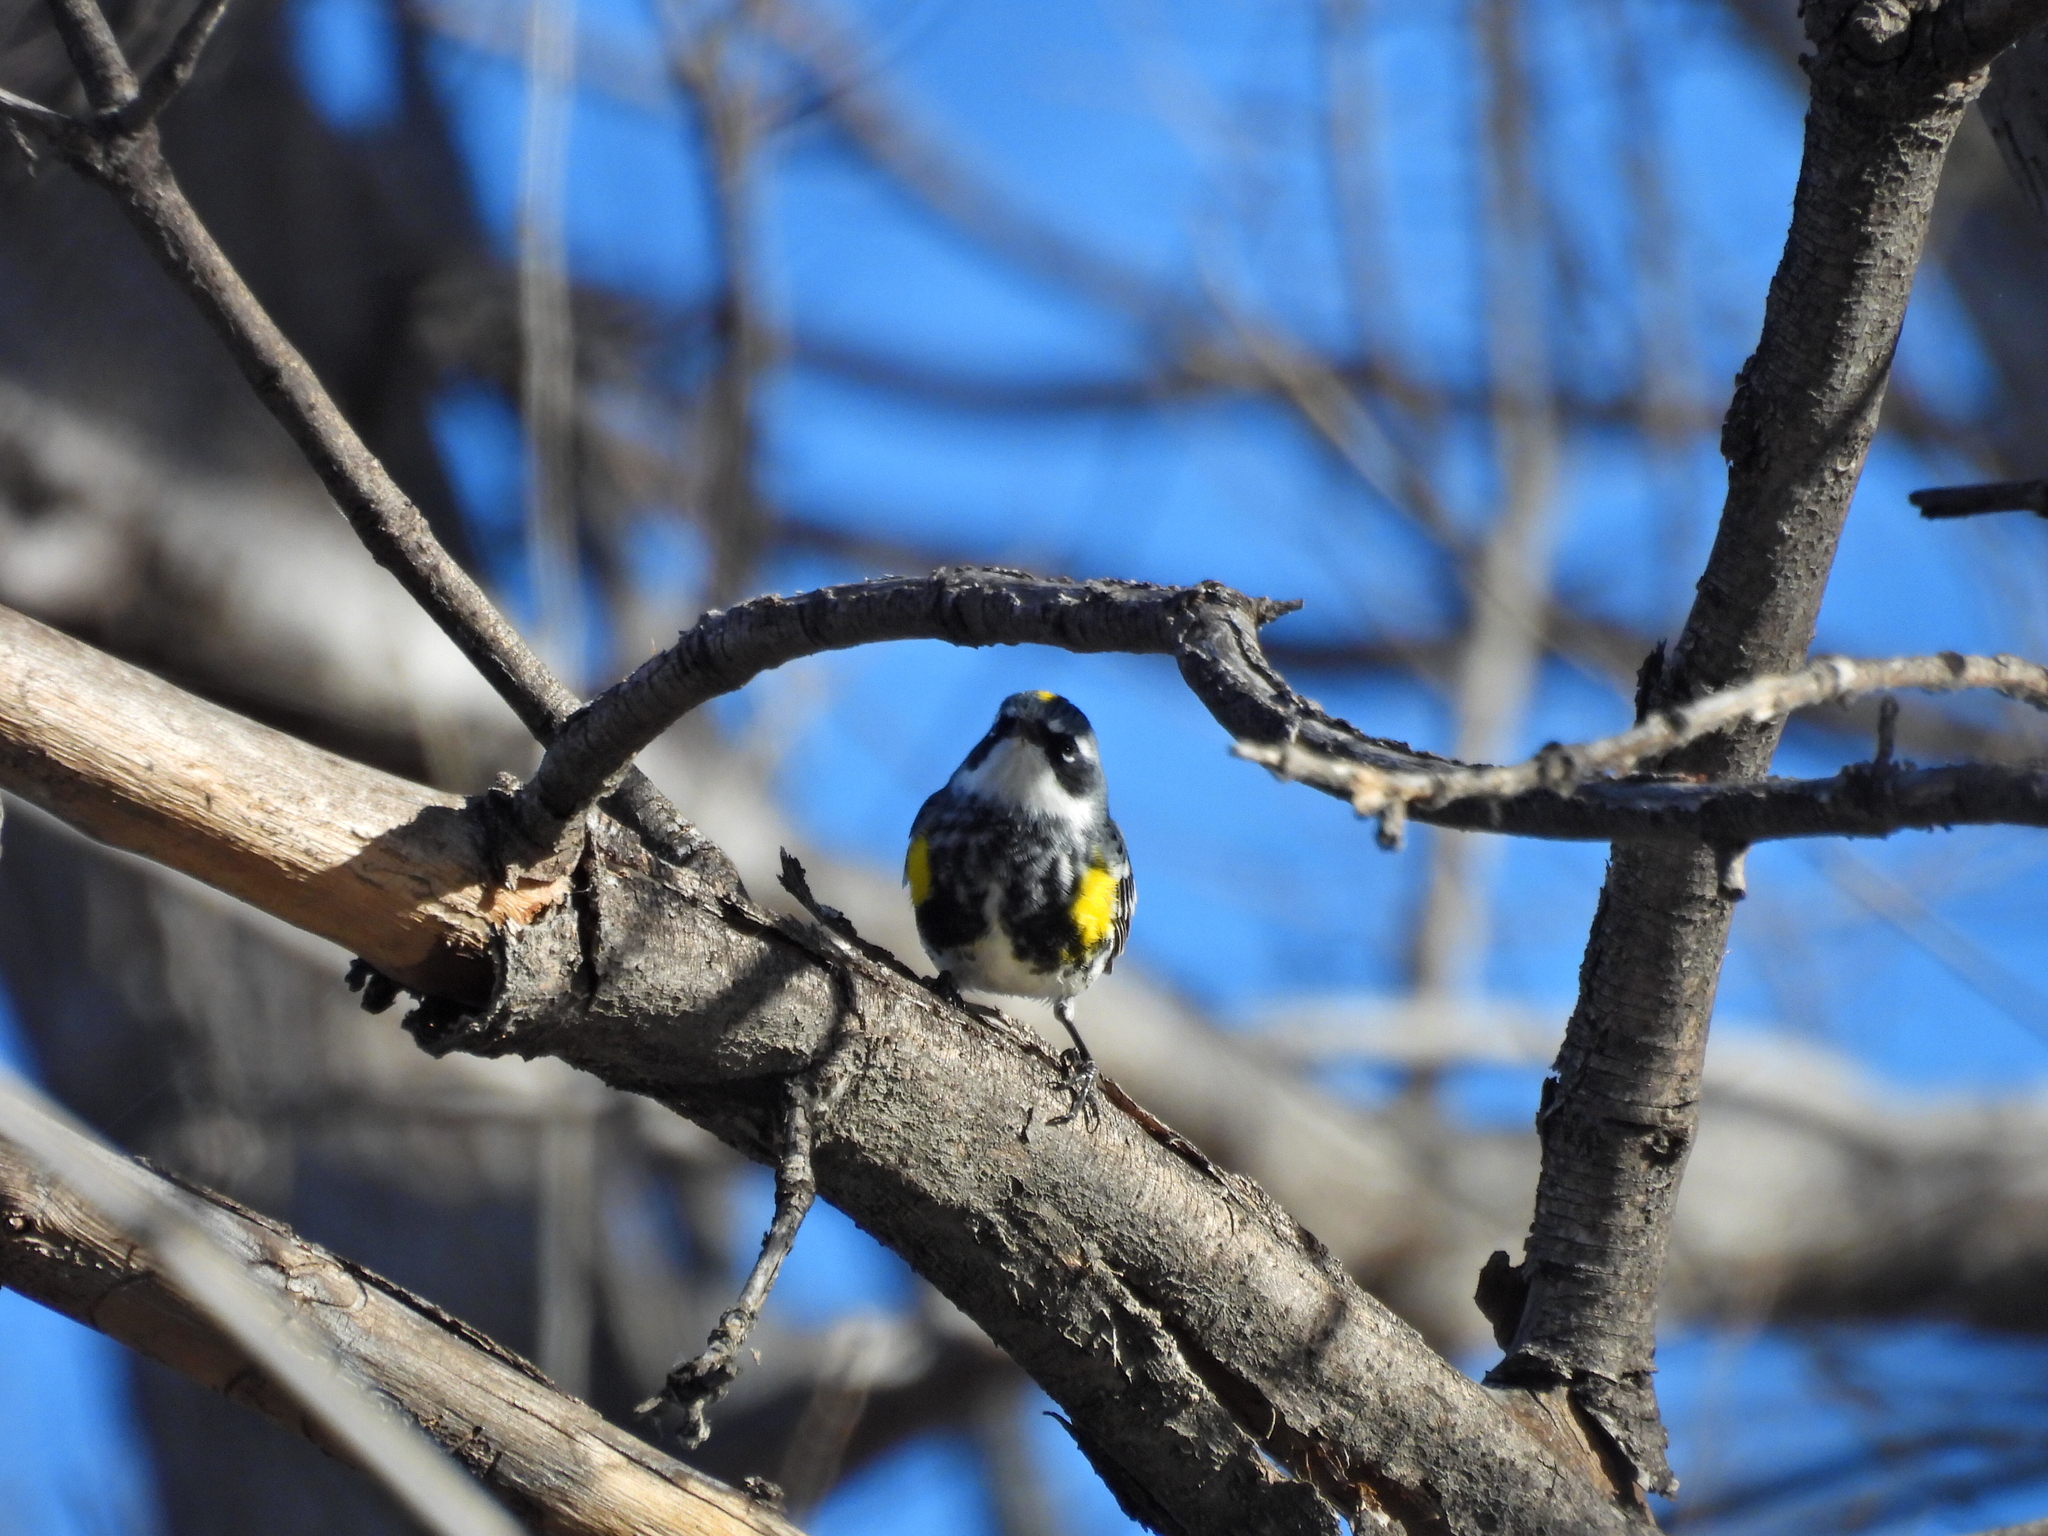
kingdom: Animalia
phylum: Chordata
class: Aves
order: Passeriformes
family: Parulidae
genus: Setophaga
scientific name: Setophaga coronata
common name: Myrtle warbler
